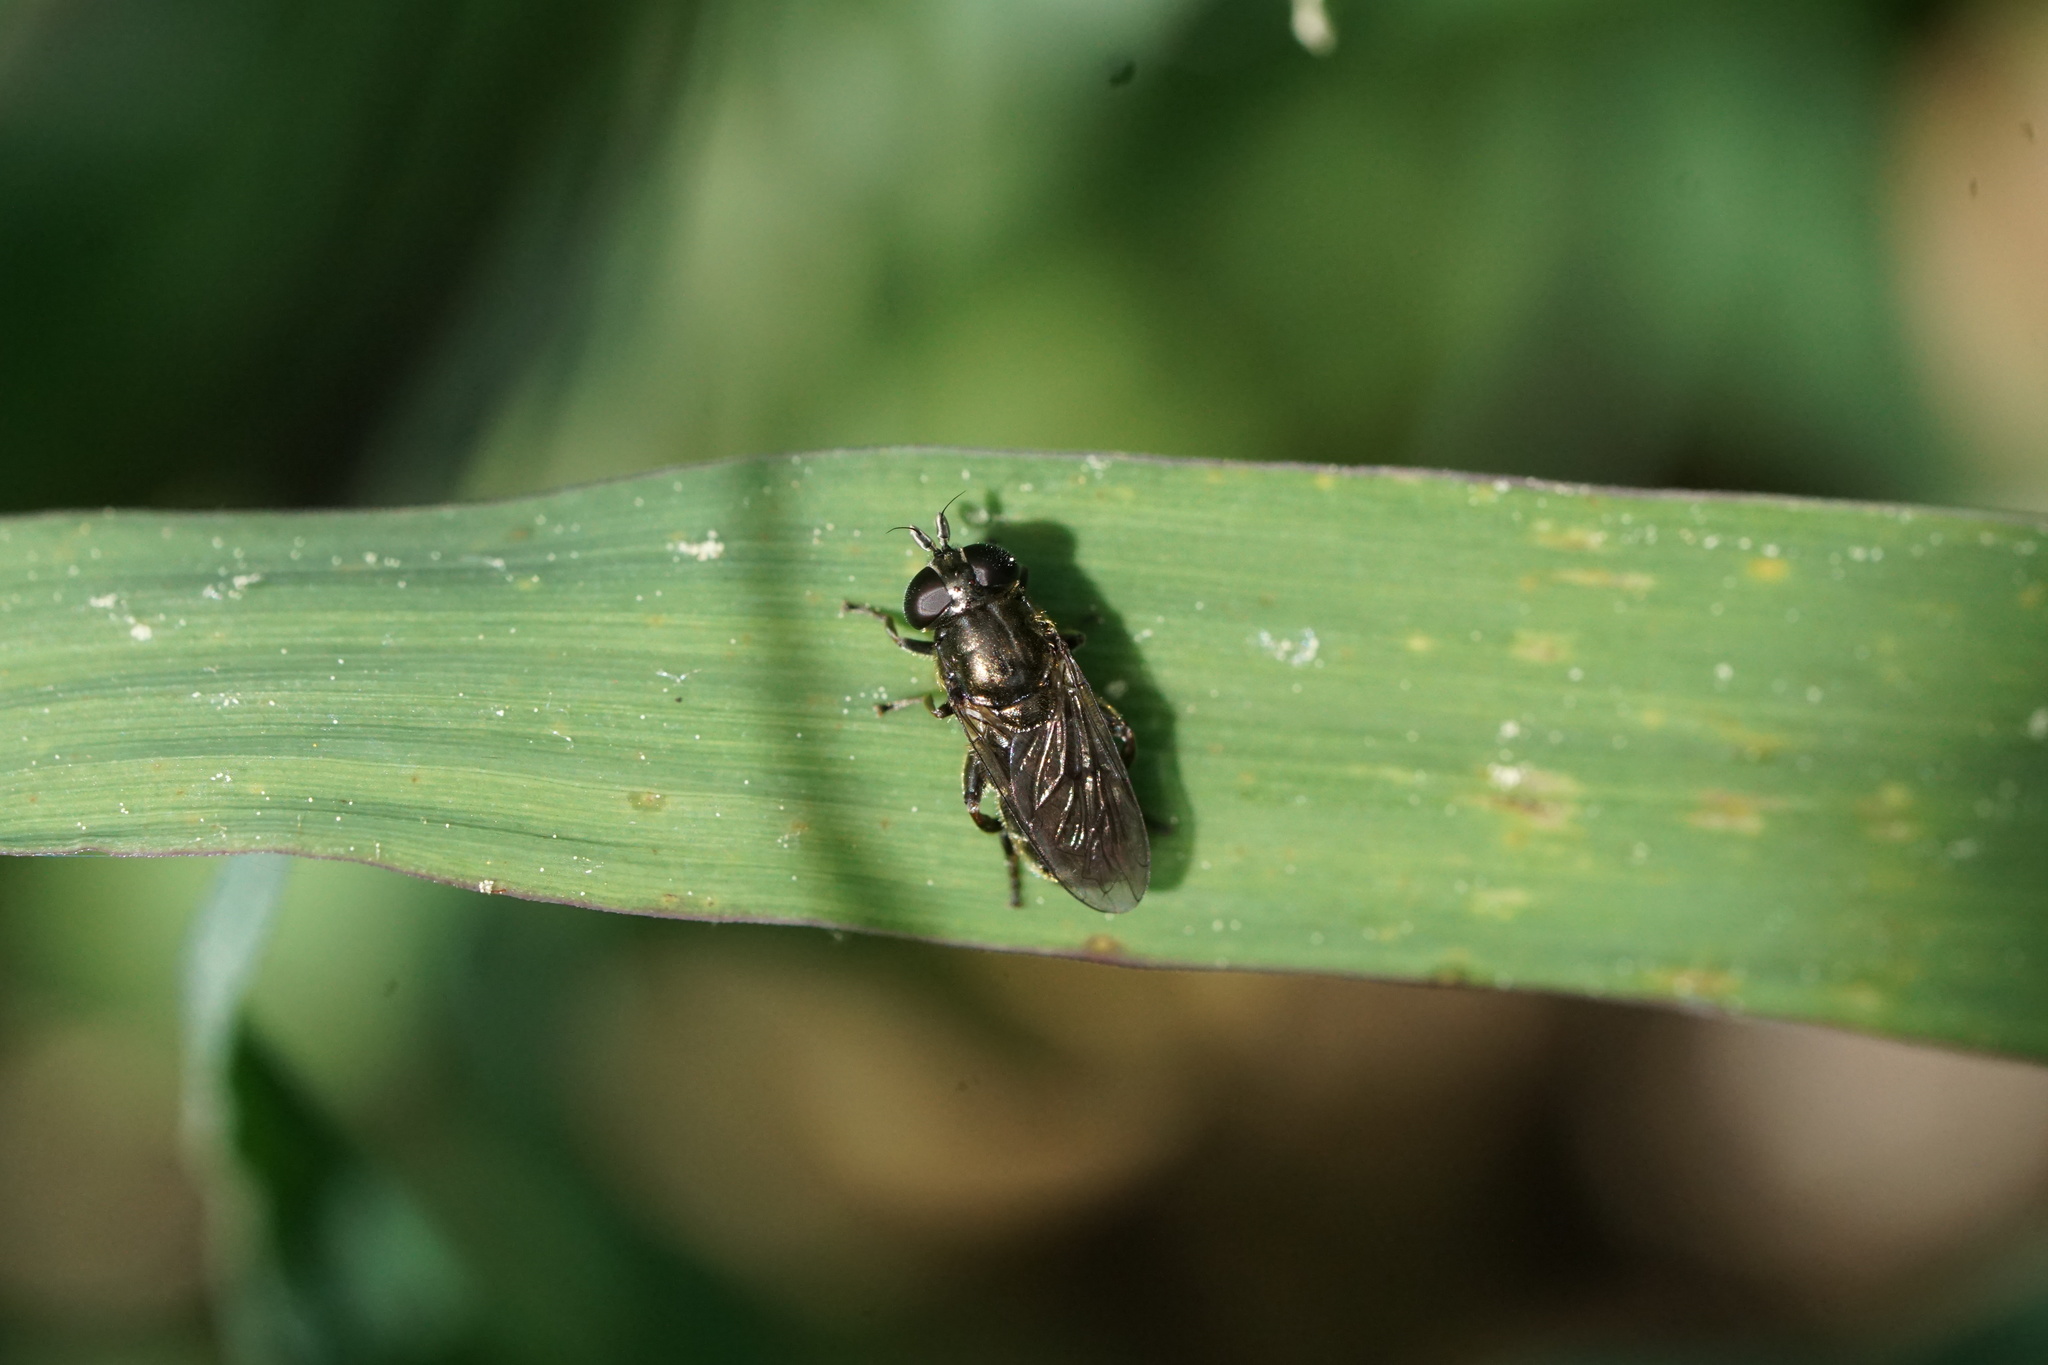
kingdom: Animalia
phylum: Arthropoda
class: Insecta
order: Diptera
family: Syrphidae
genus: Eumerus
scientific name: Eumerus
